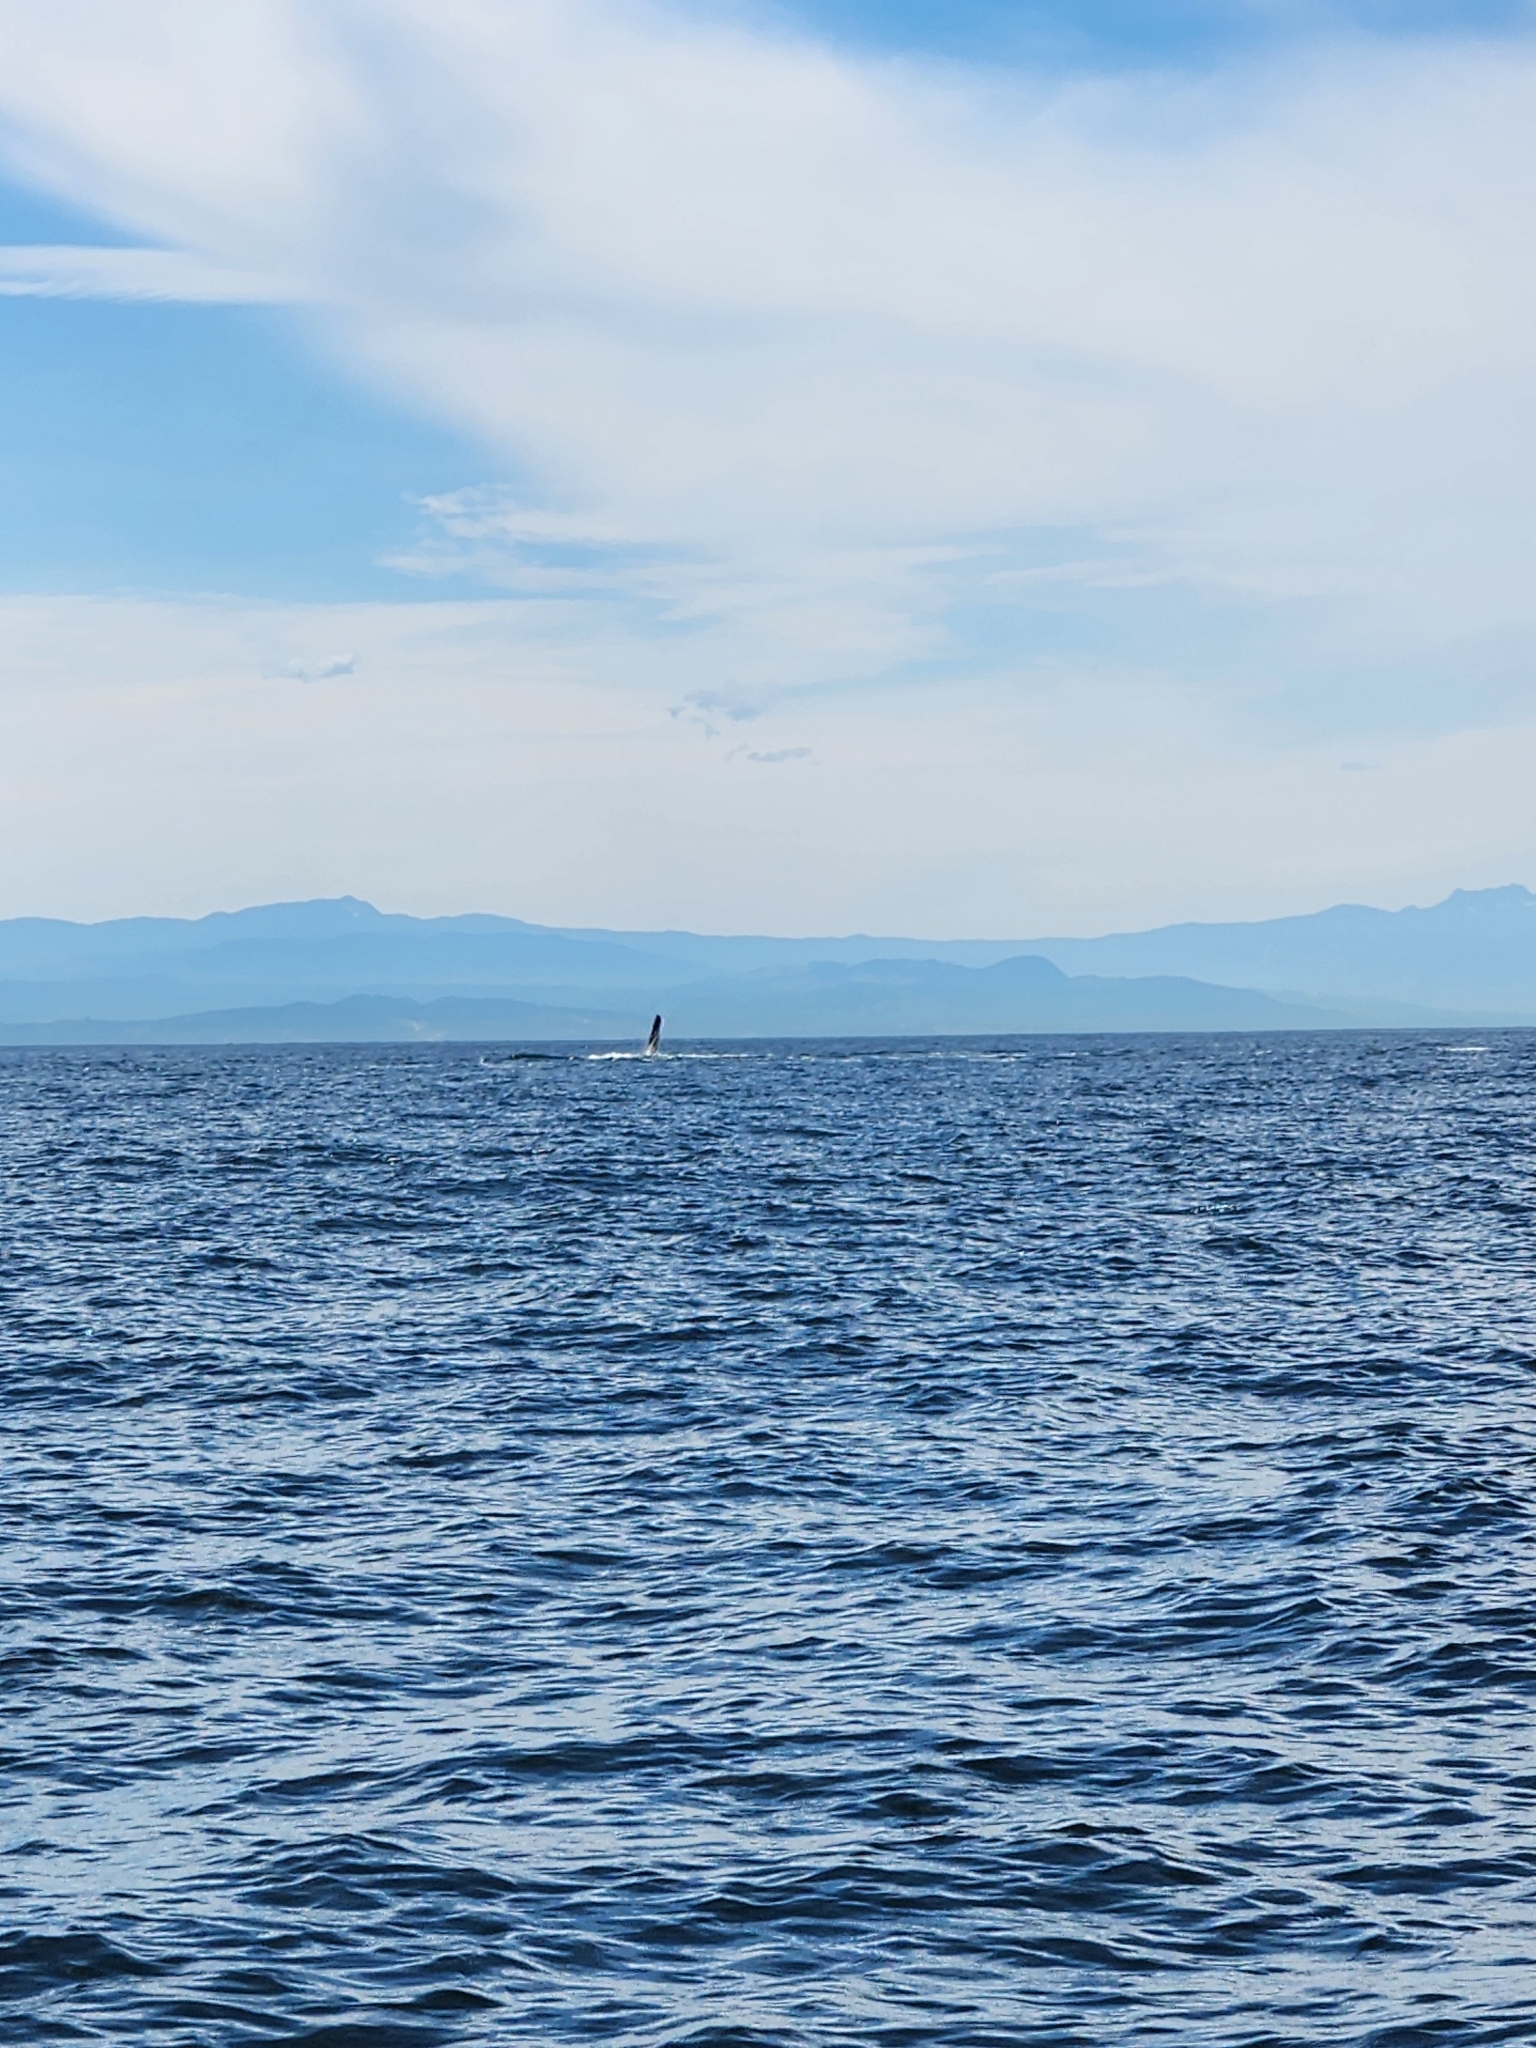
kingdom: Animalia
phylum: Chordata
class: Mammalia
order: Cetacea
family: Balaenopteridae
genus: Megaptera
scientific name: Megaptera novaeangliae
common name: Humpback whale
